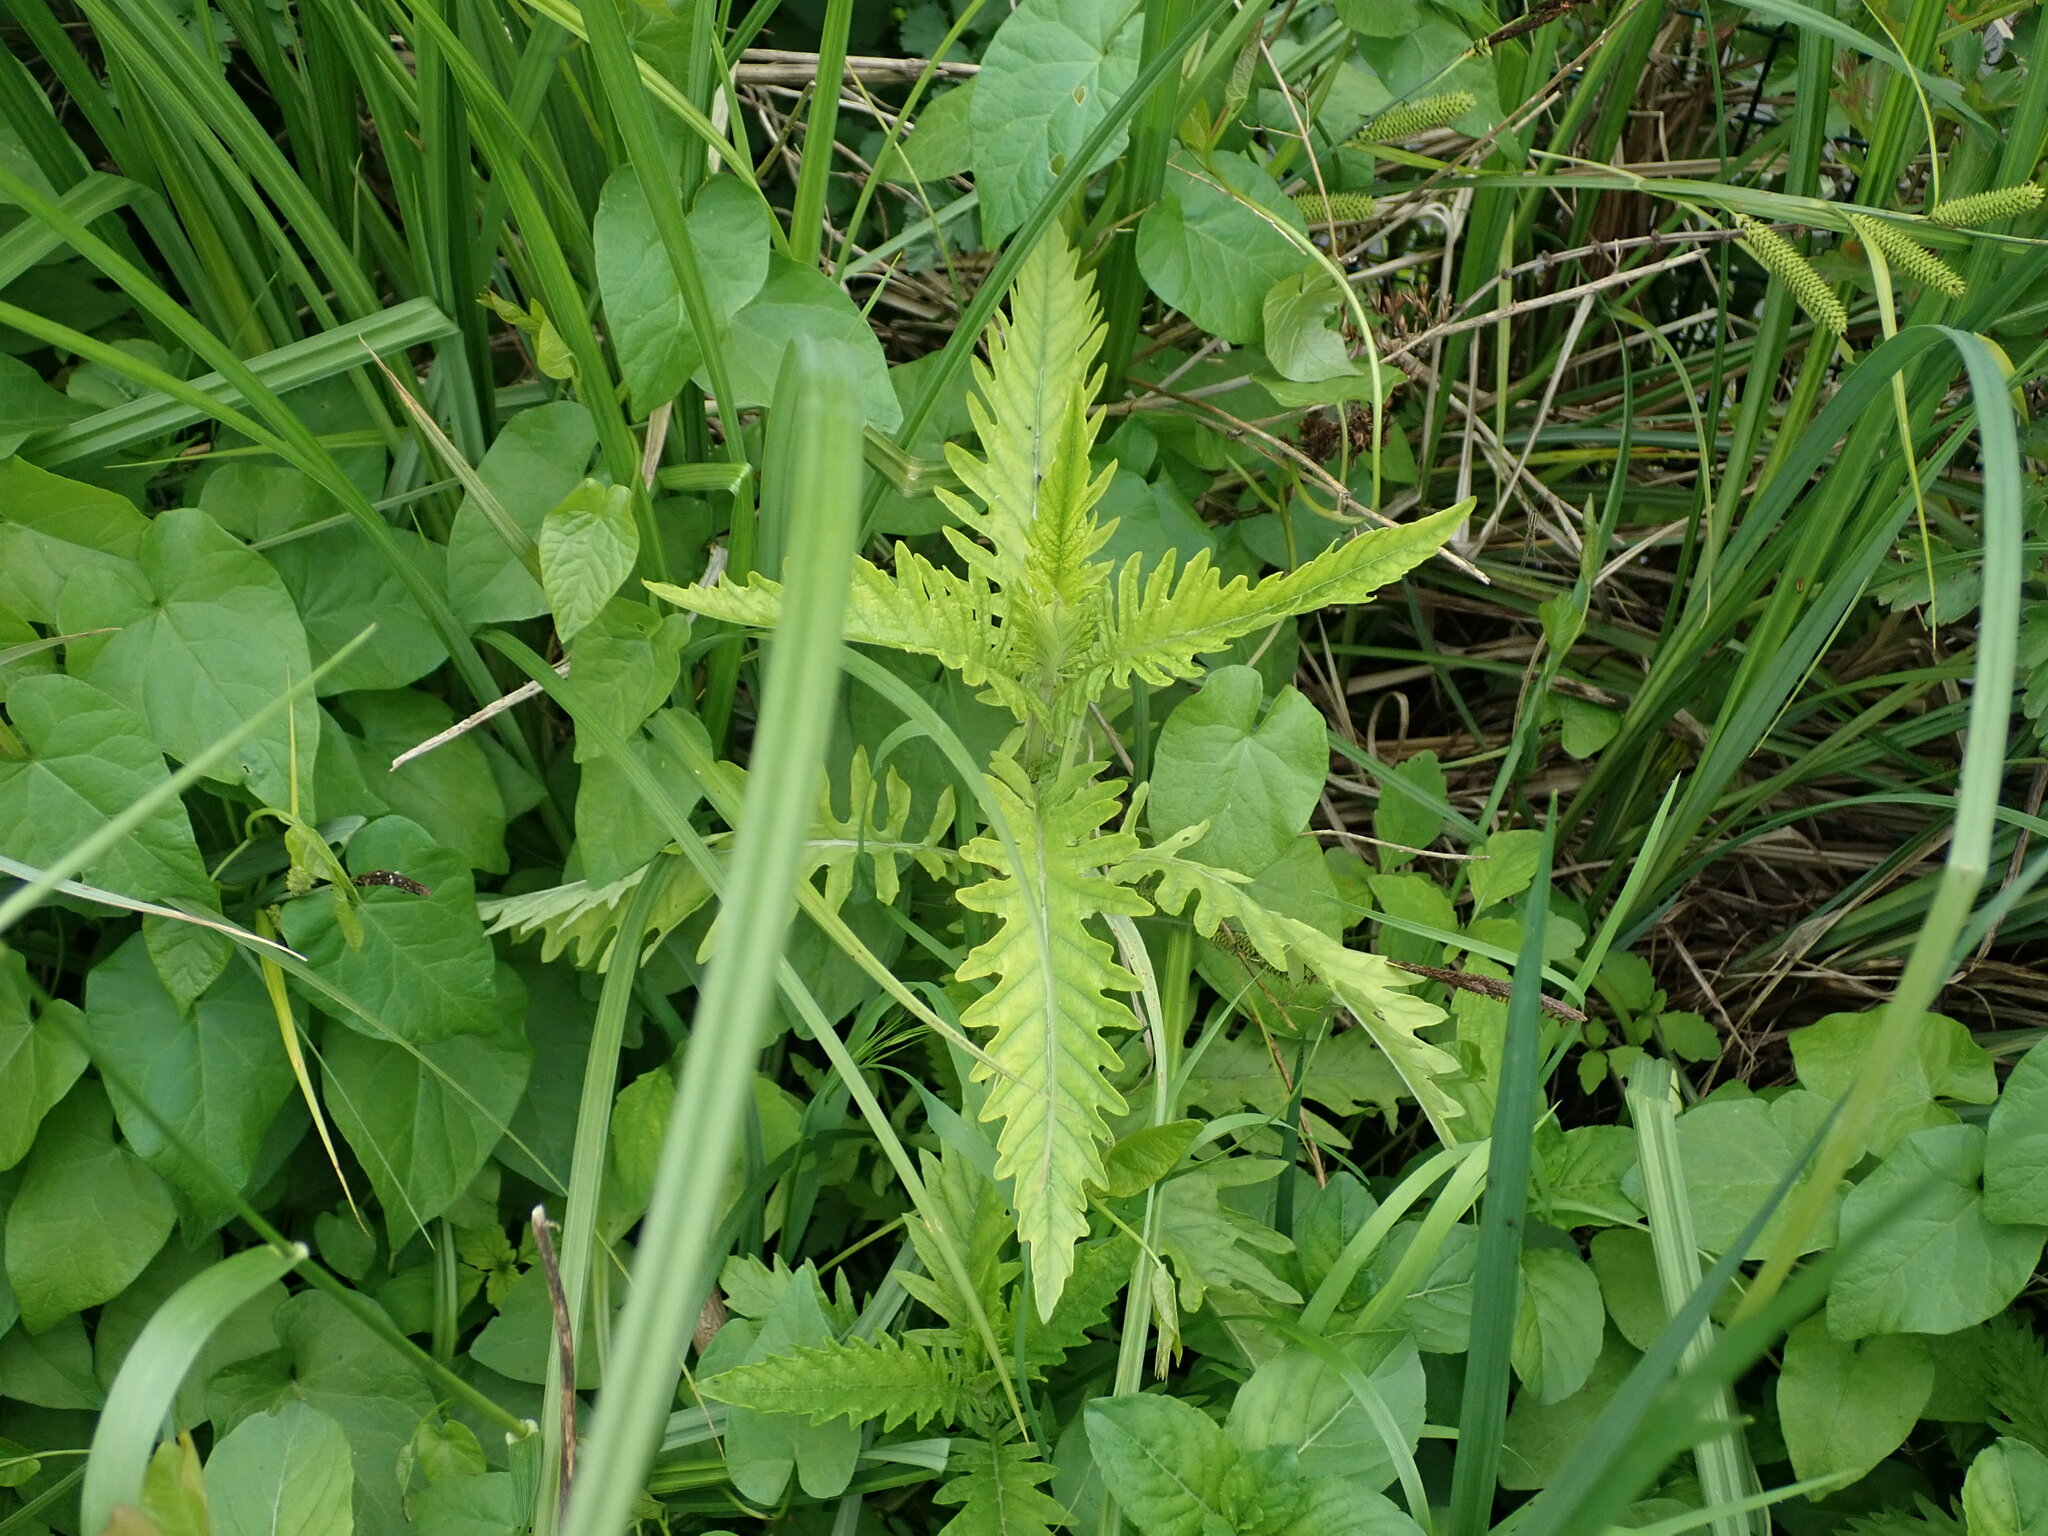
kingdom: Plantae
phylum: Tracheophyta
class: Magnoliopsida
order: Lamiales
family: Lamiaceae
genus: Lycopus
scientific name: Lycopus europaeus
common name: European bugleweed
